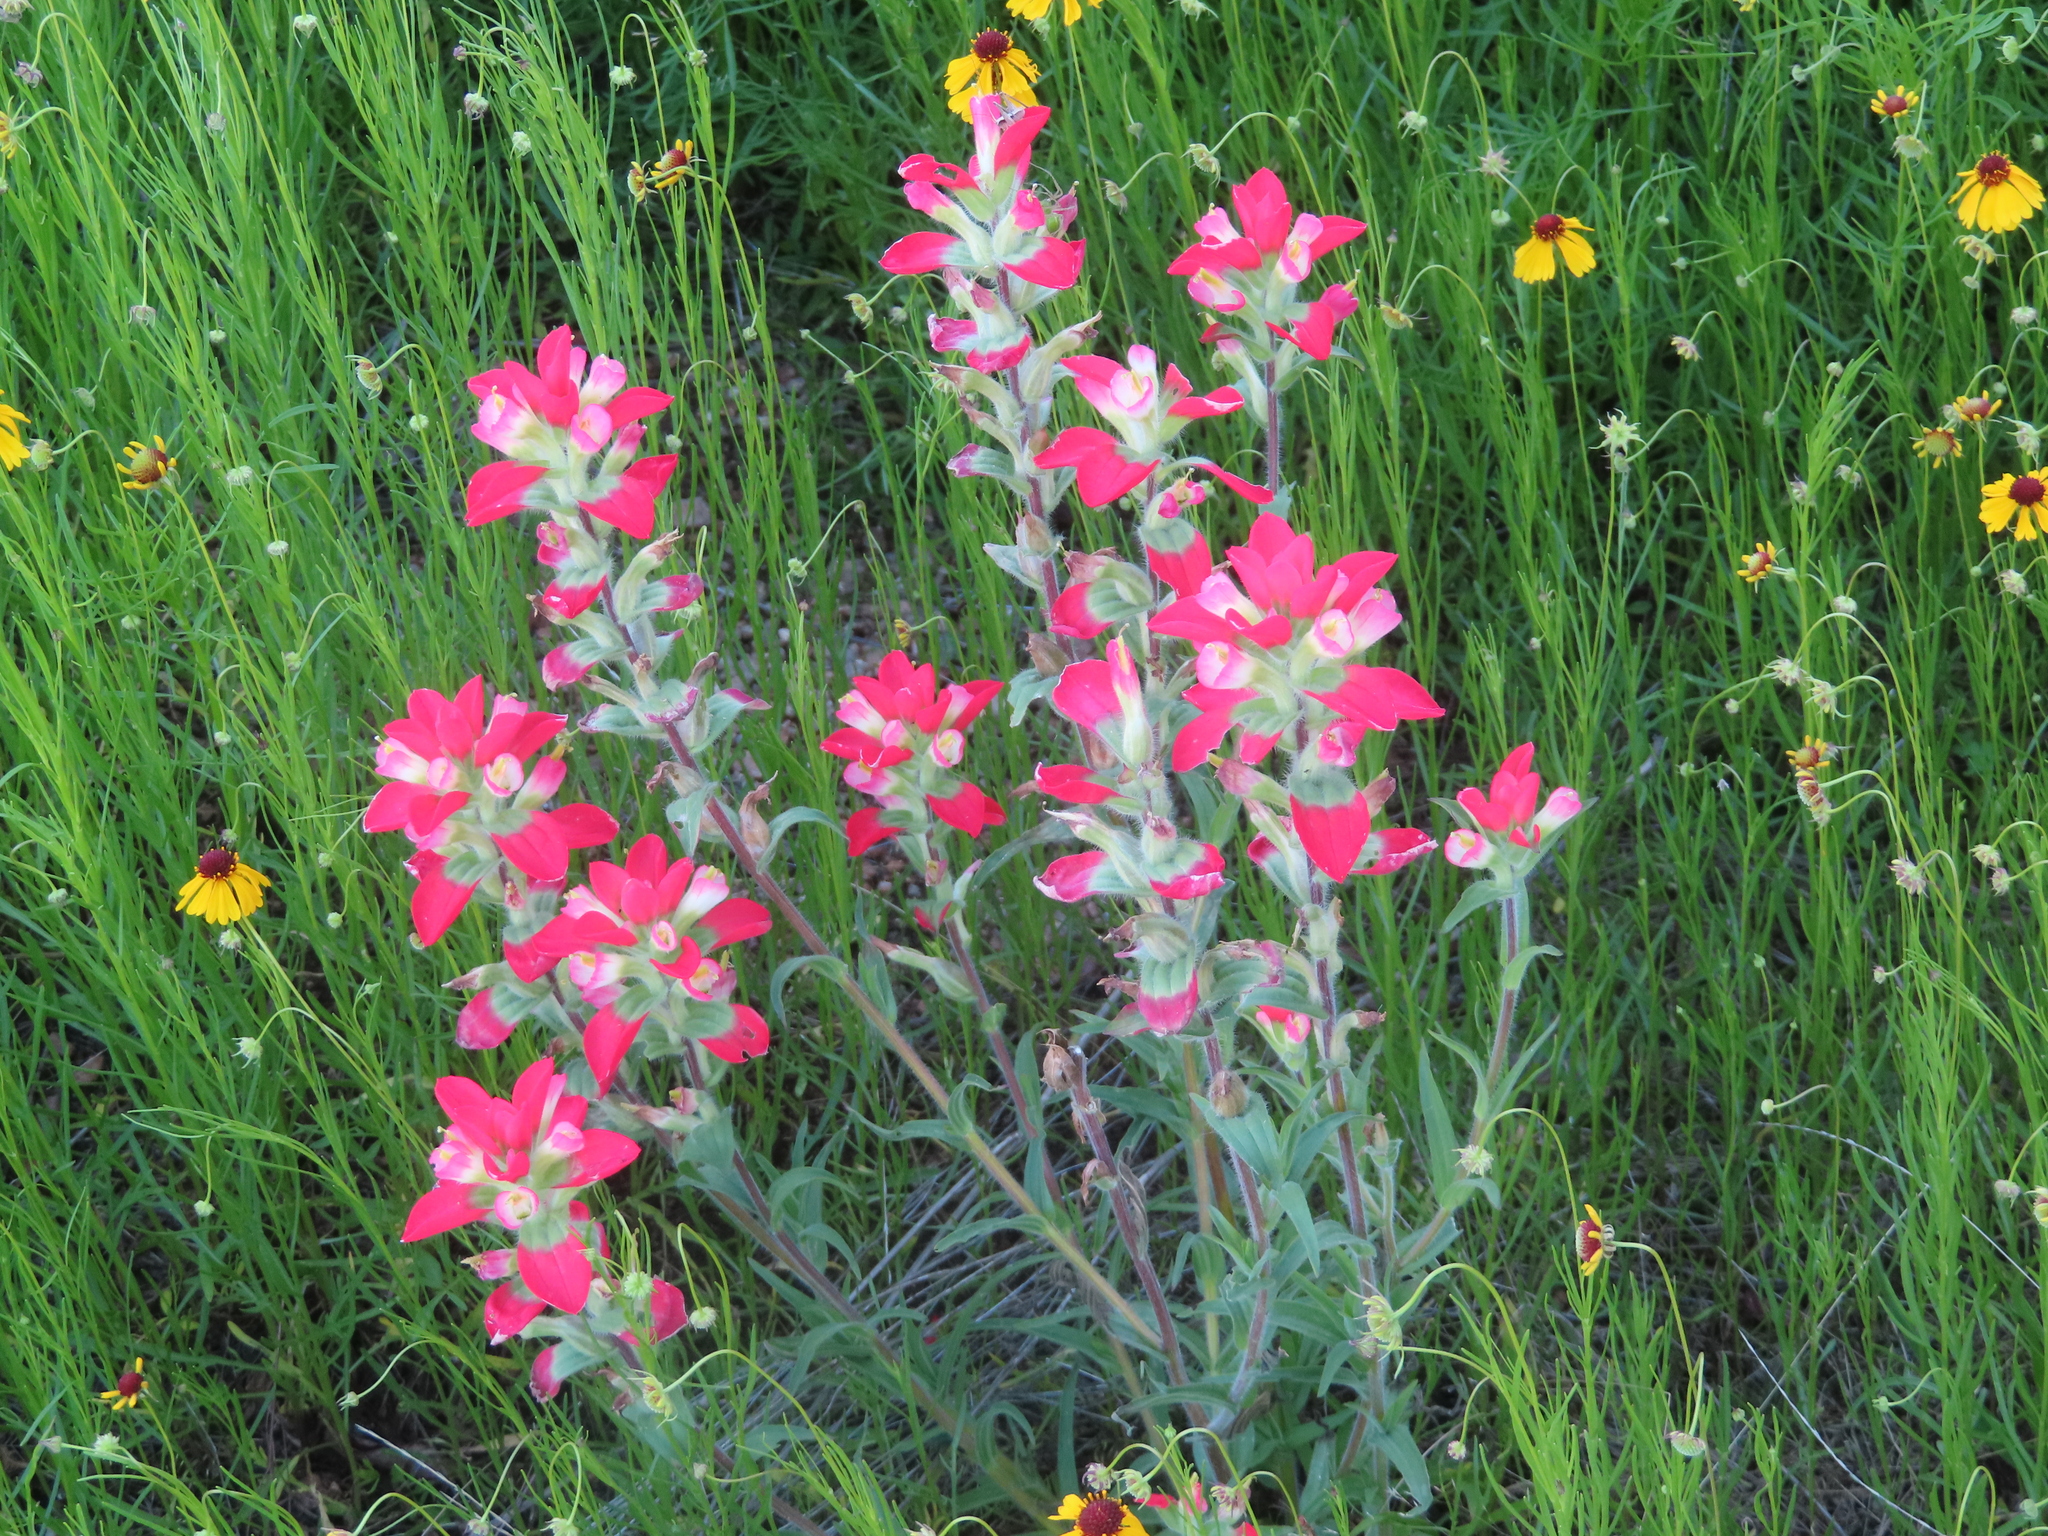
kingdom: Plantae
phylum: Tracheophyta
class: Magnoliopsida
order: Lamiales
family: Orobanchaceae
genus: Castilleja
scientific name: Castilleja indivisa
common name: Texas paintbrush
